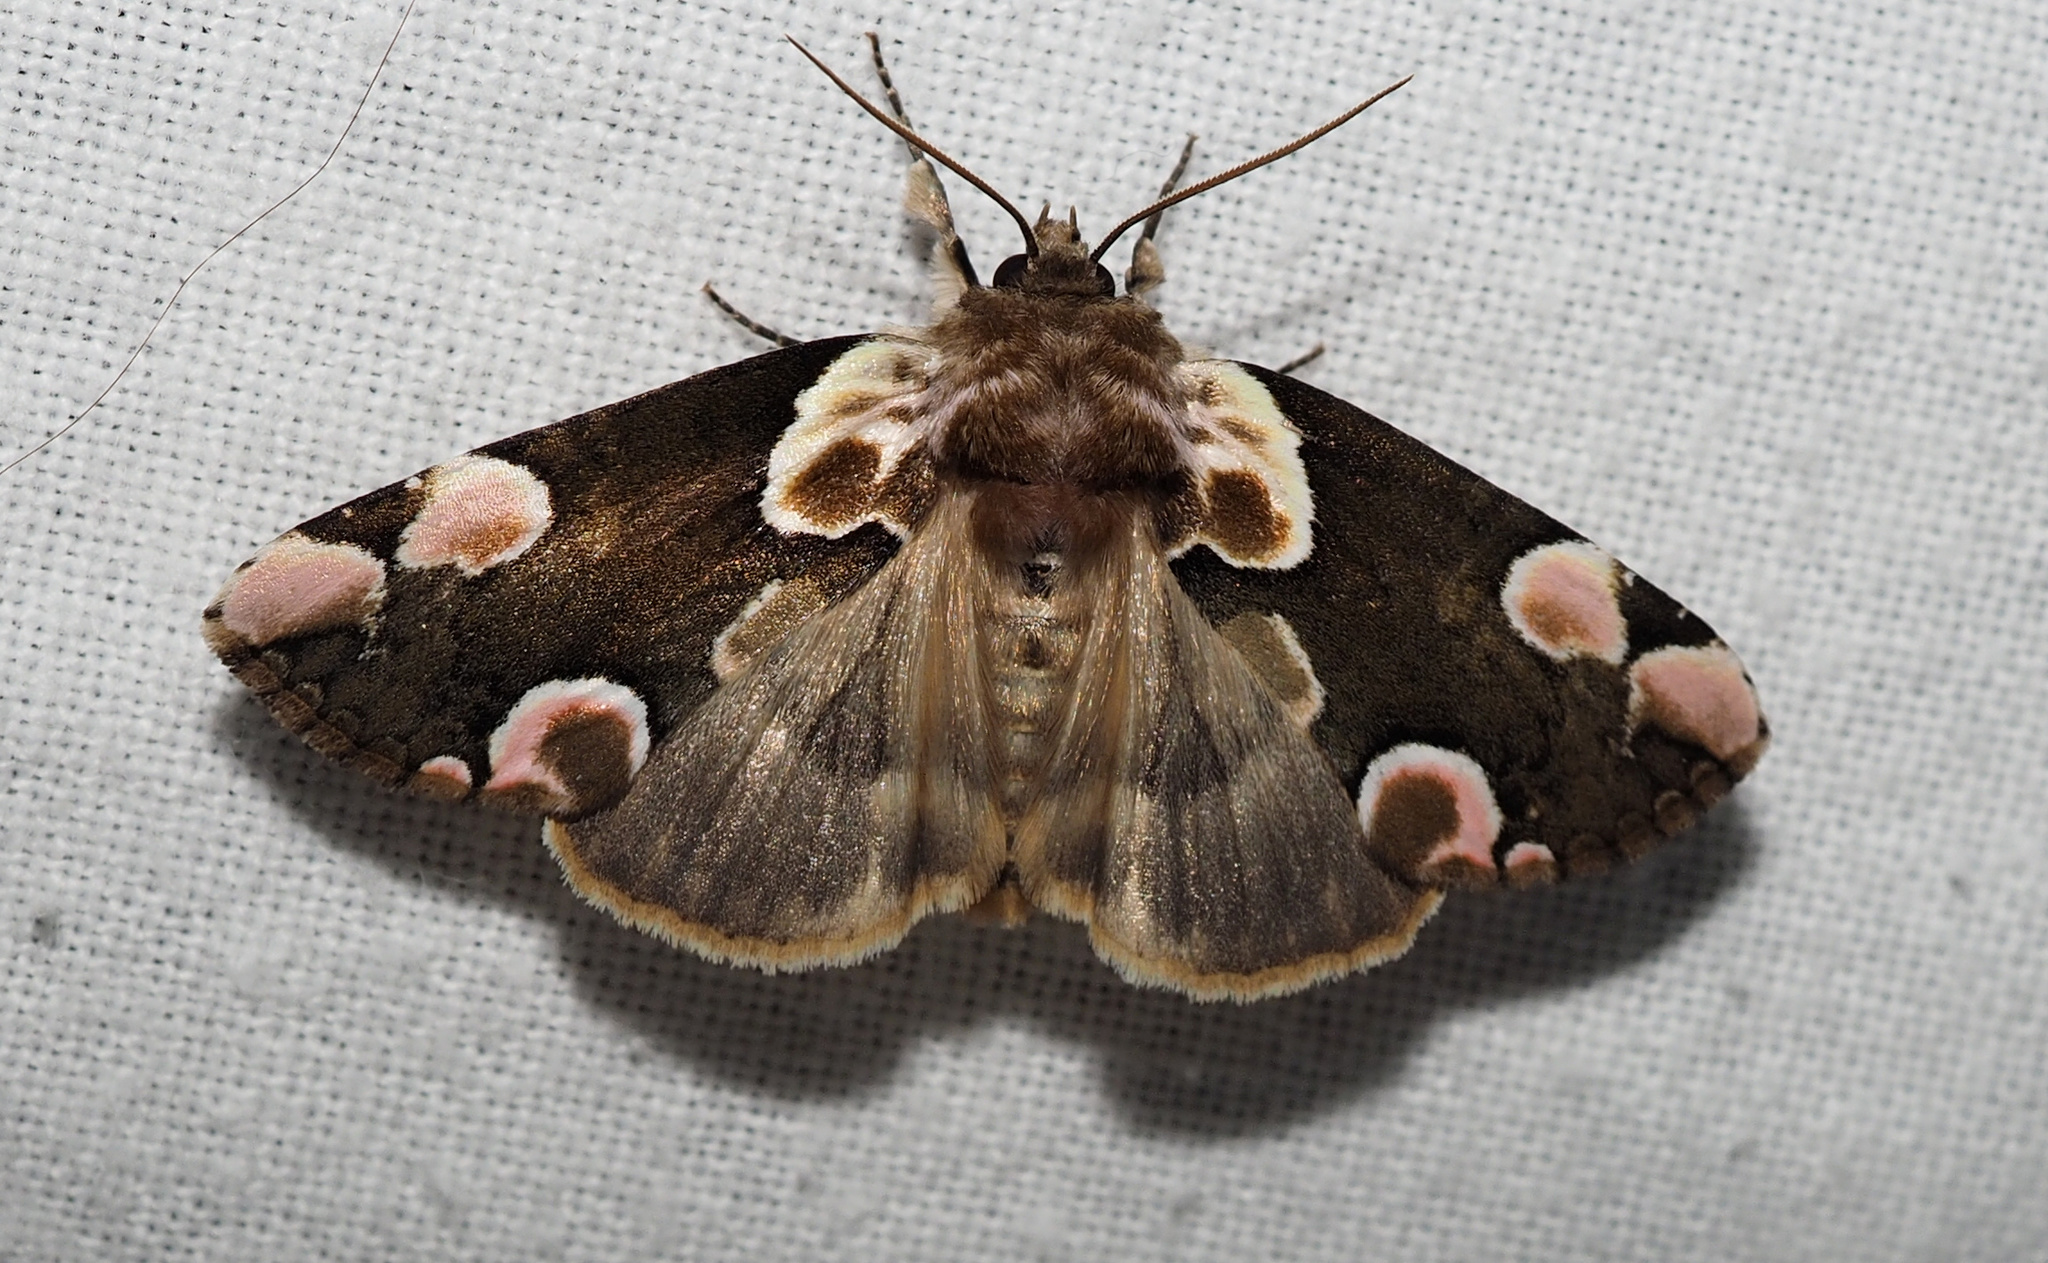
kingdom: Animalia
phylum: Arthropoda
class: Insecta
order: Lepidoptera
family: Drepanidae
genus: Thyatira
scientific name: Thyatira batis
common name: Peach blossom
